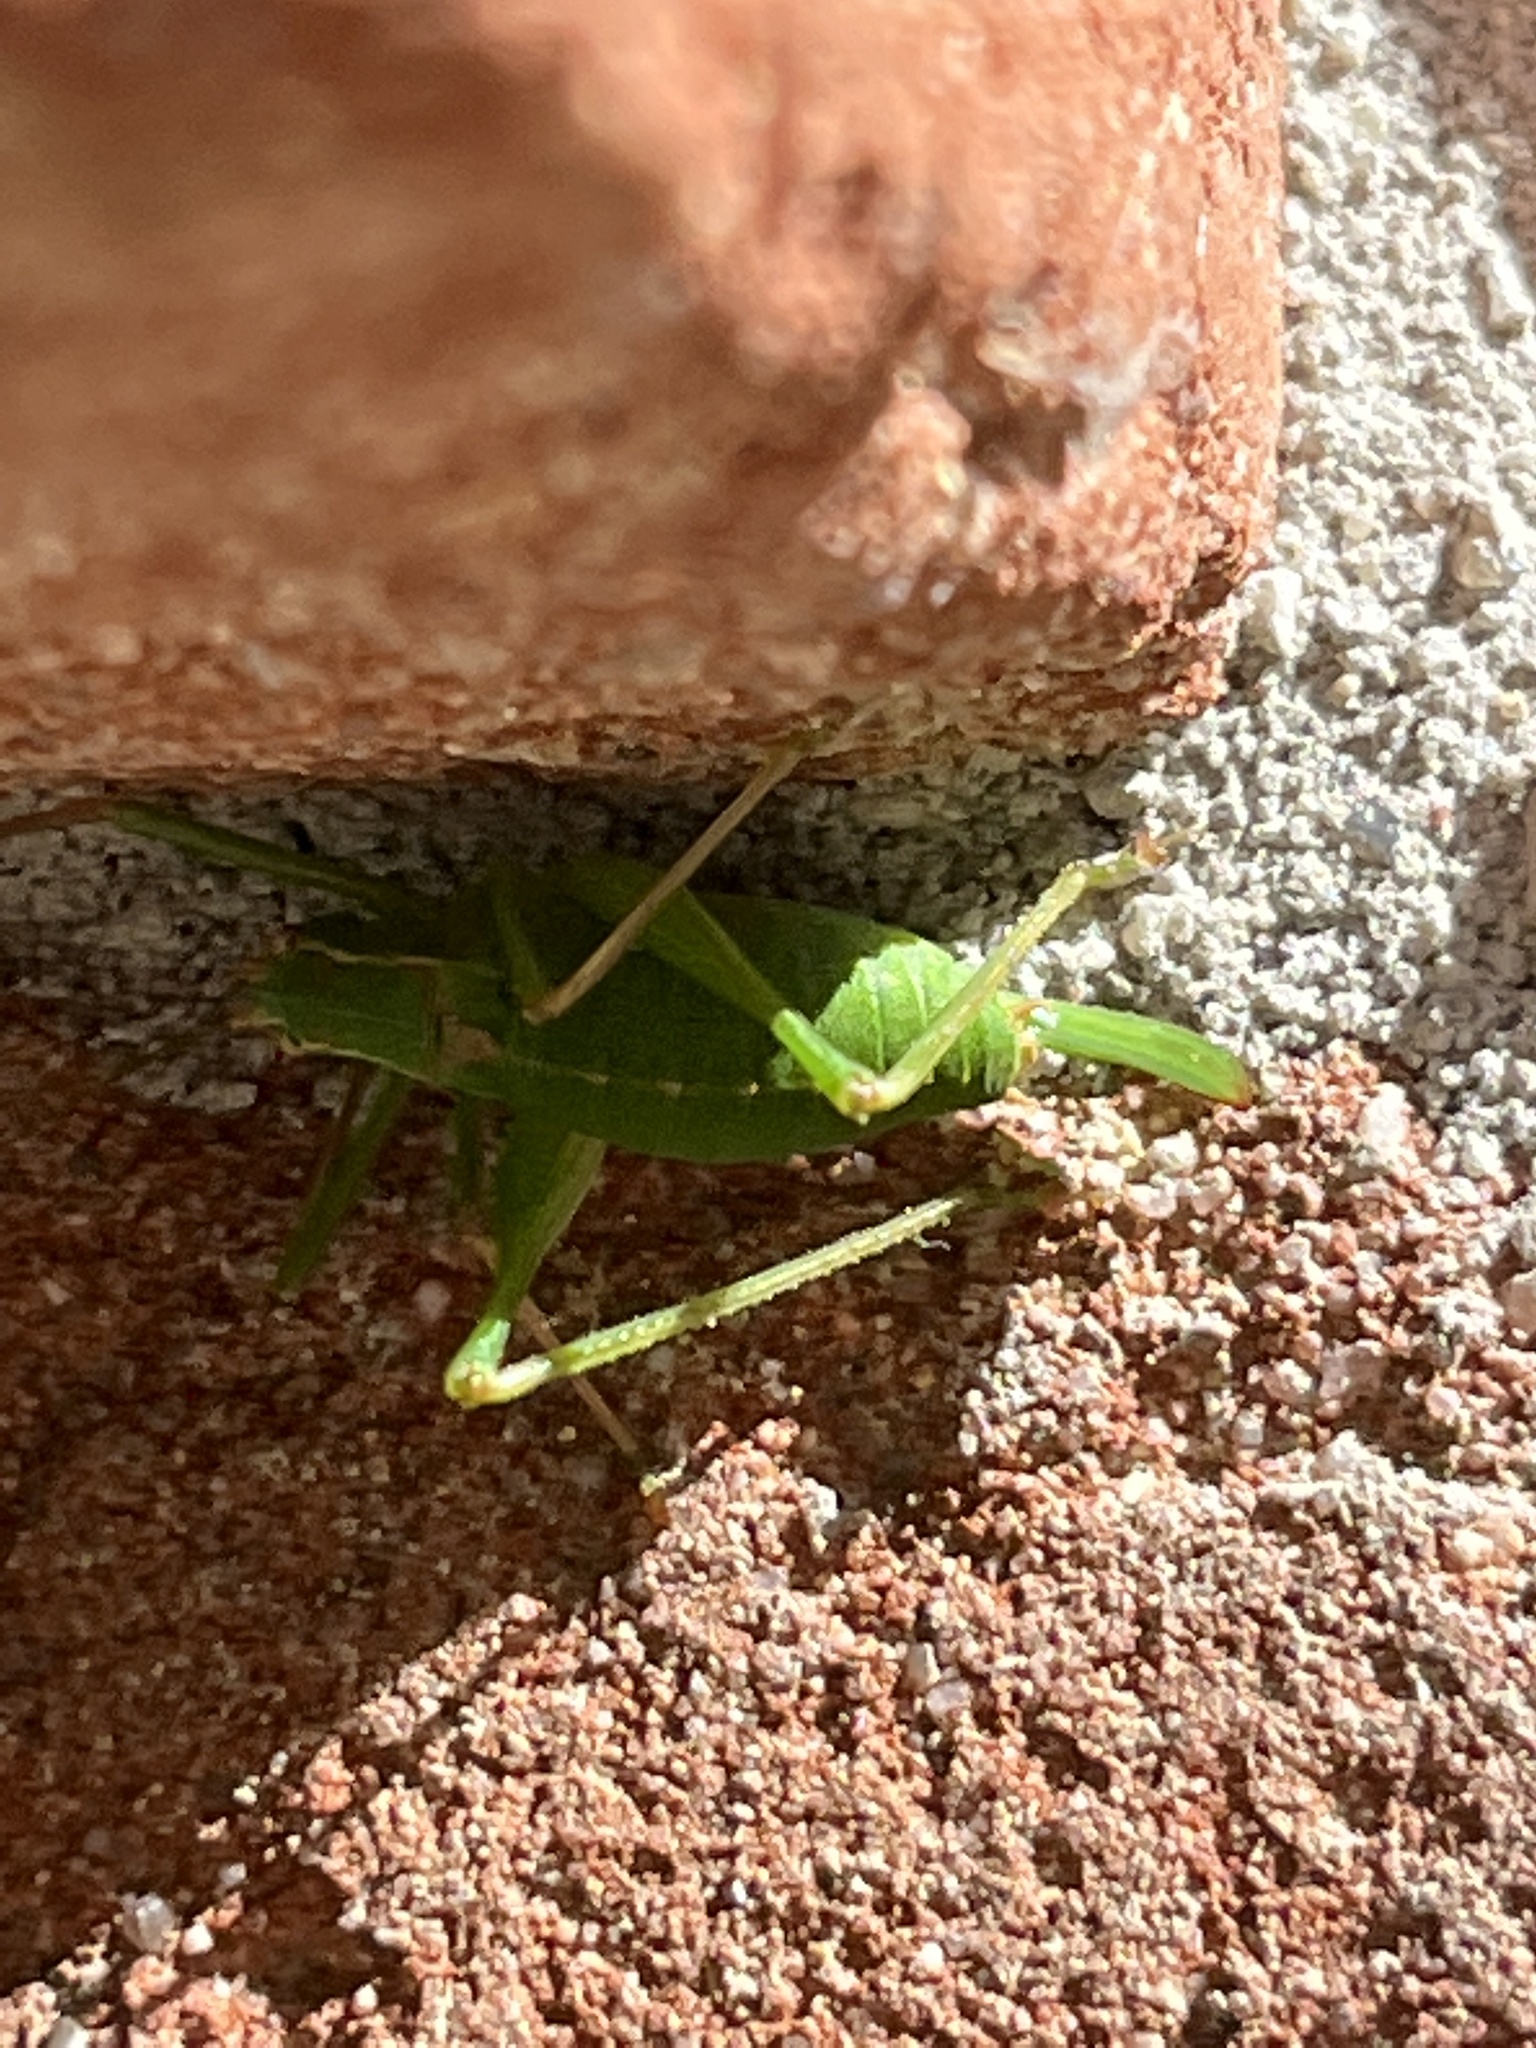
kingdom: Animalia
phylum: Arthropoda
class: Insecta
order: Orthoptera
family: Tettigoniidae
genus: Leptophyes
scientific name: Leptophyes punctatissima
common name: Speckled bush-cricket
